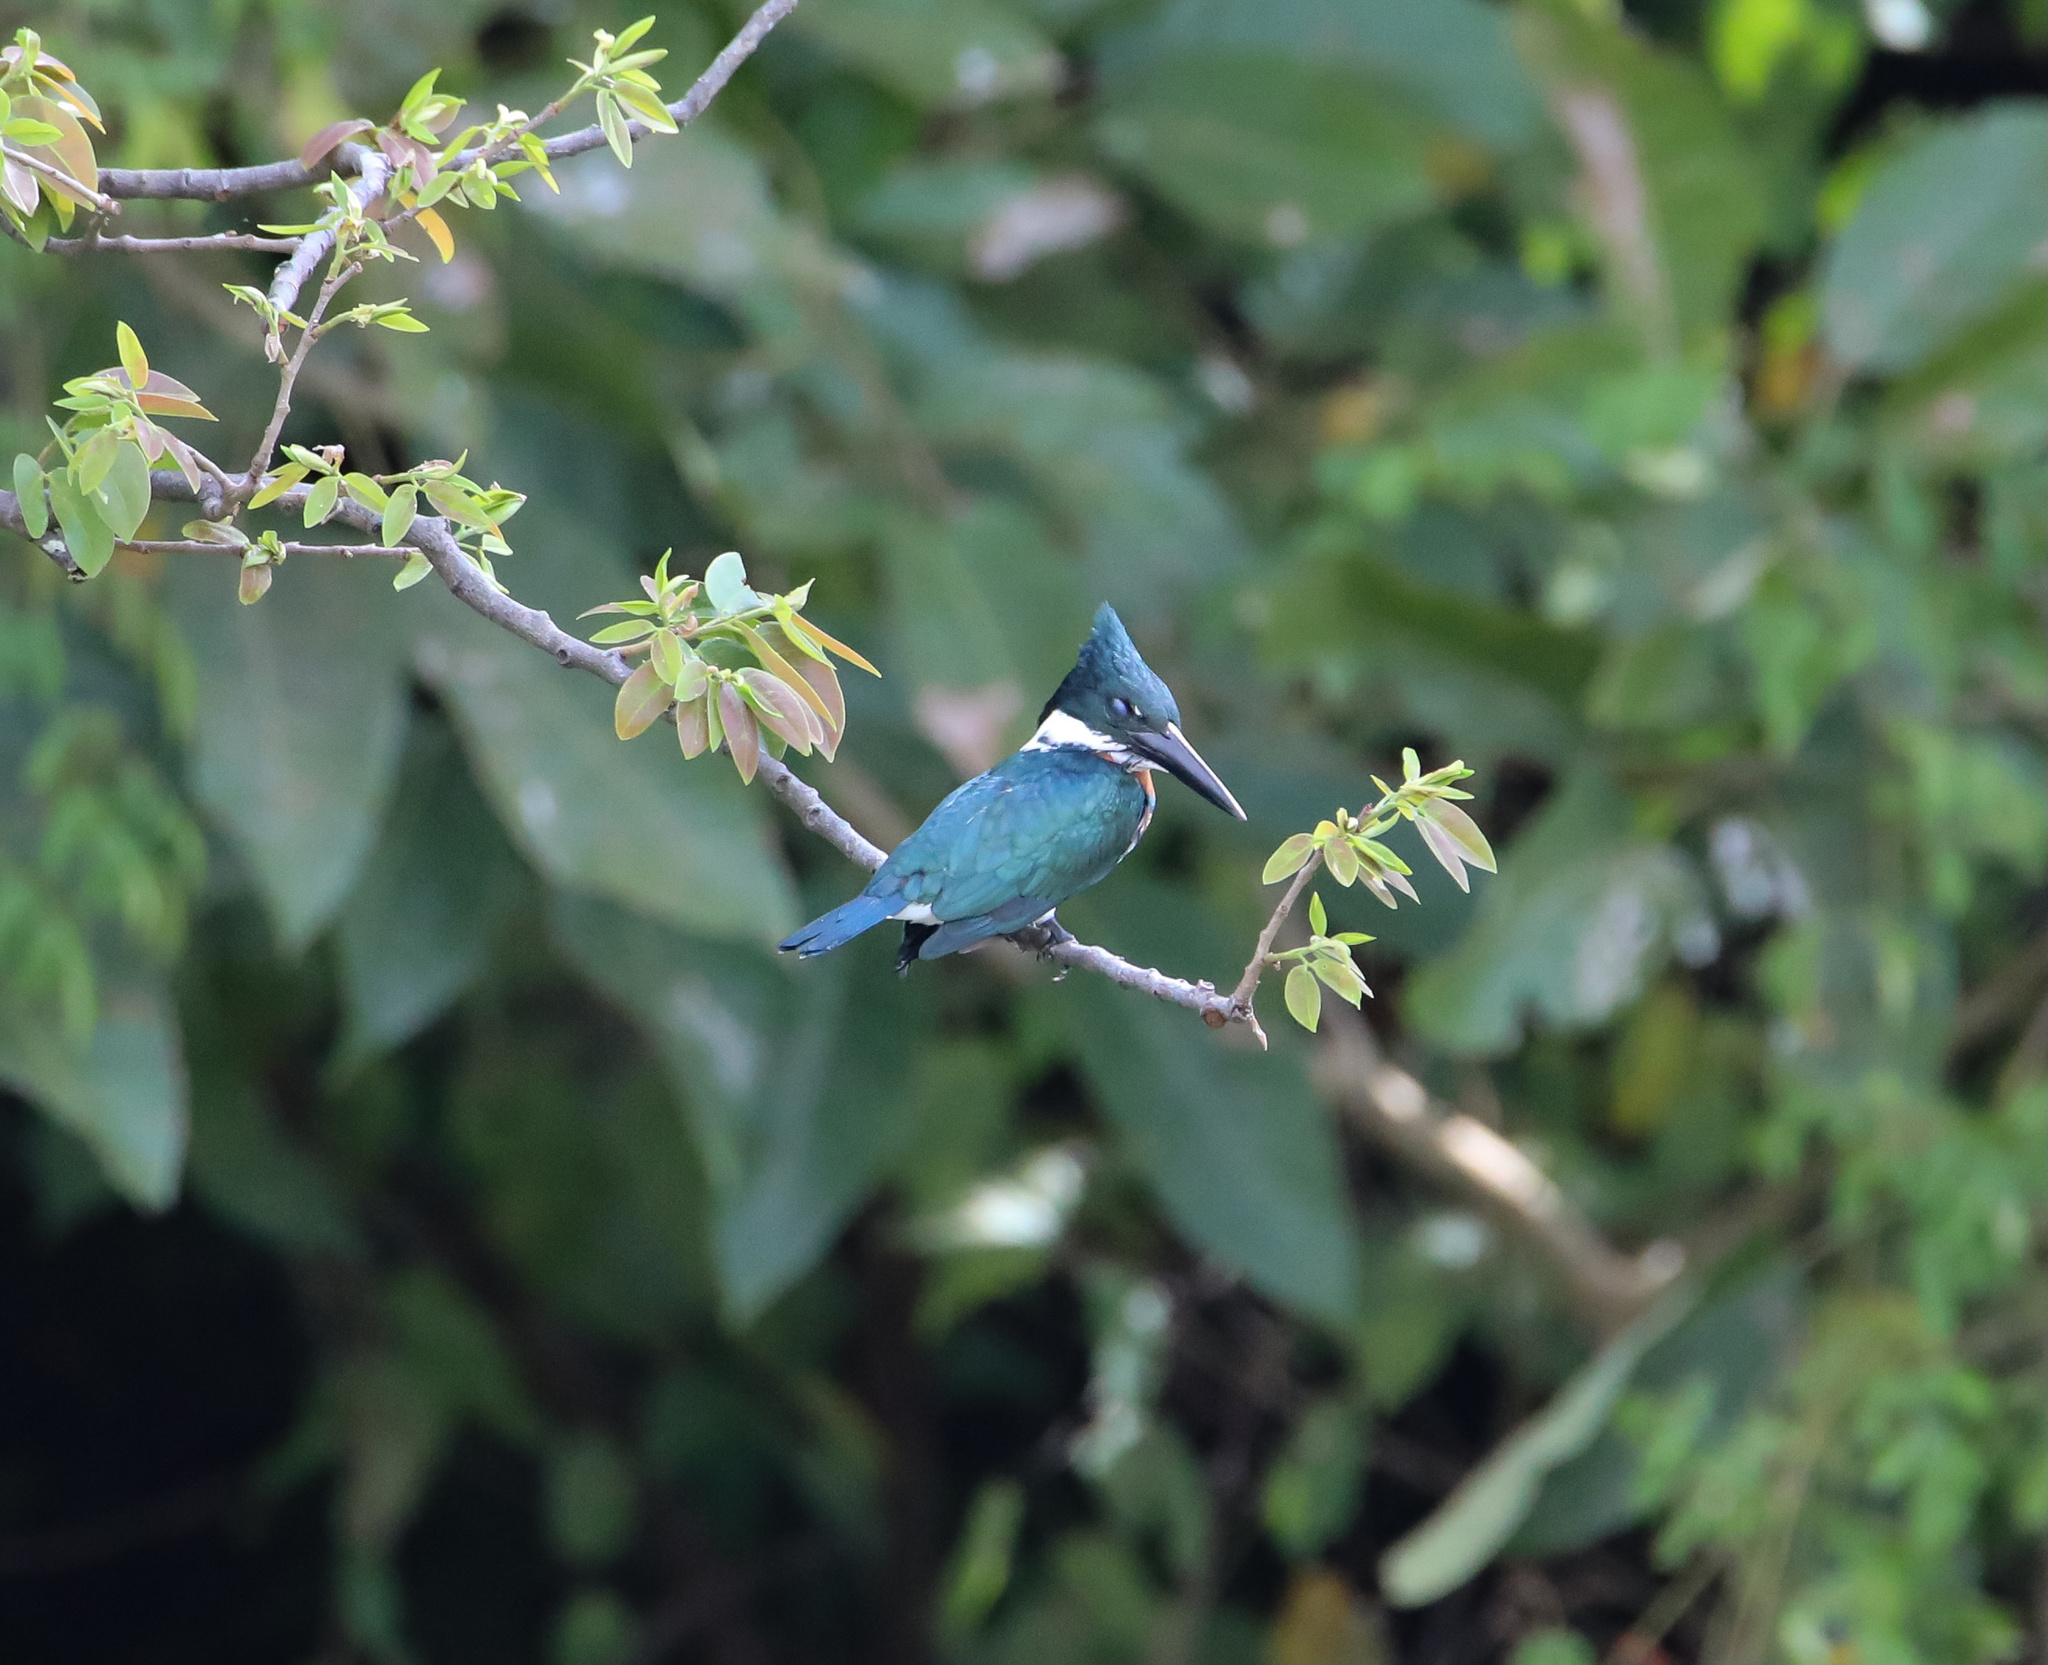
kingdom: Animalia
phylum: Chordata
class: Aves
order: Coraciiformes
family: Alcedinidae
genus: Chloroceryle
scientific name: Chloroceryle amazona
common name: Amazon kingfisher
